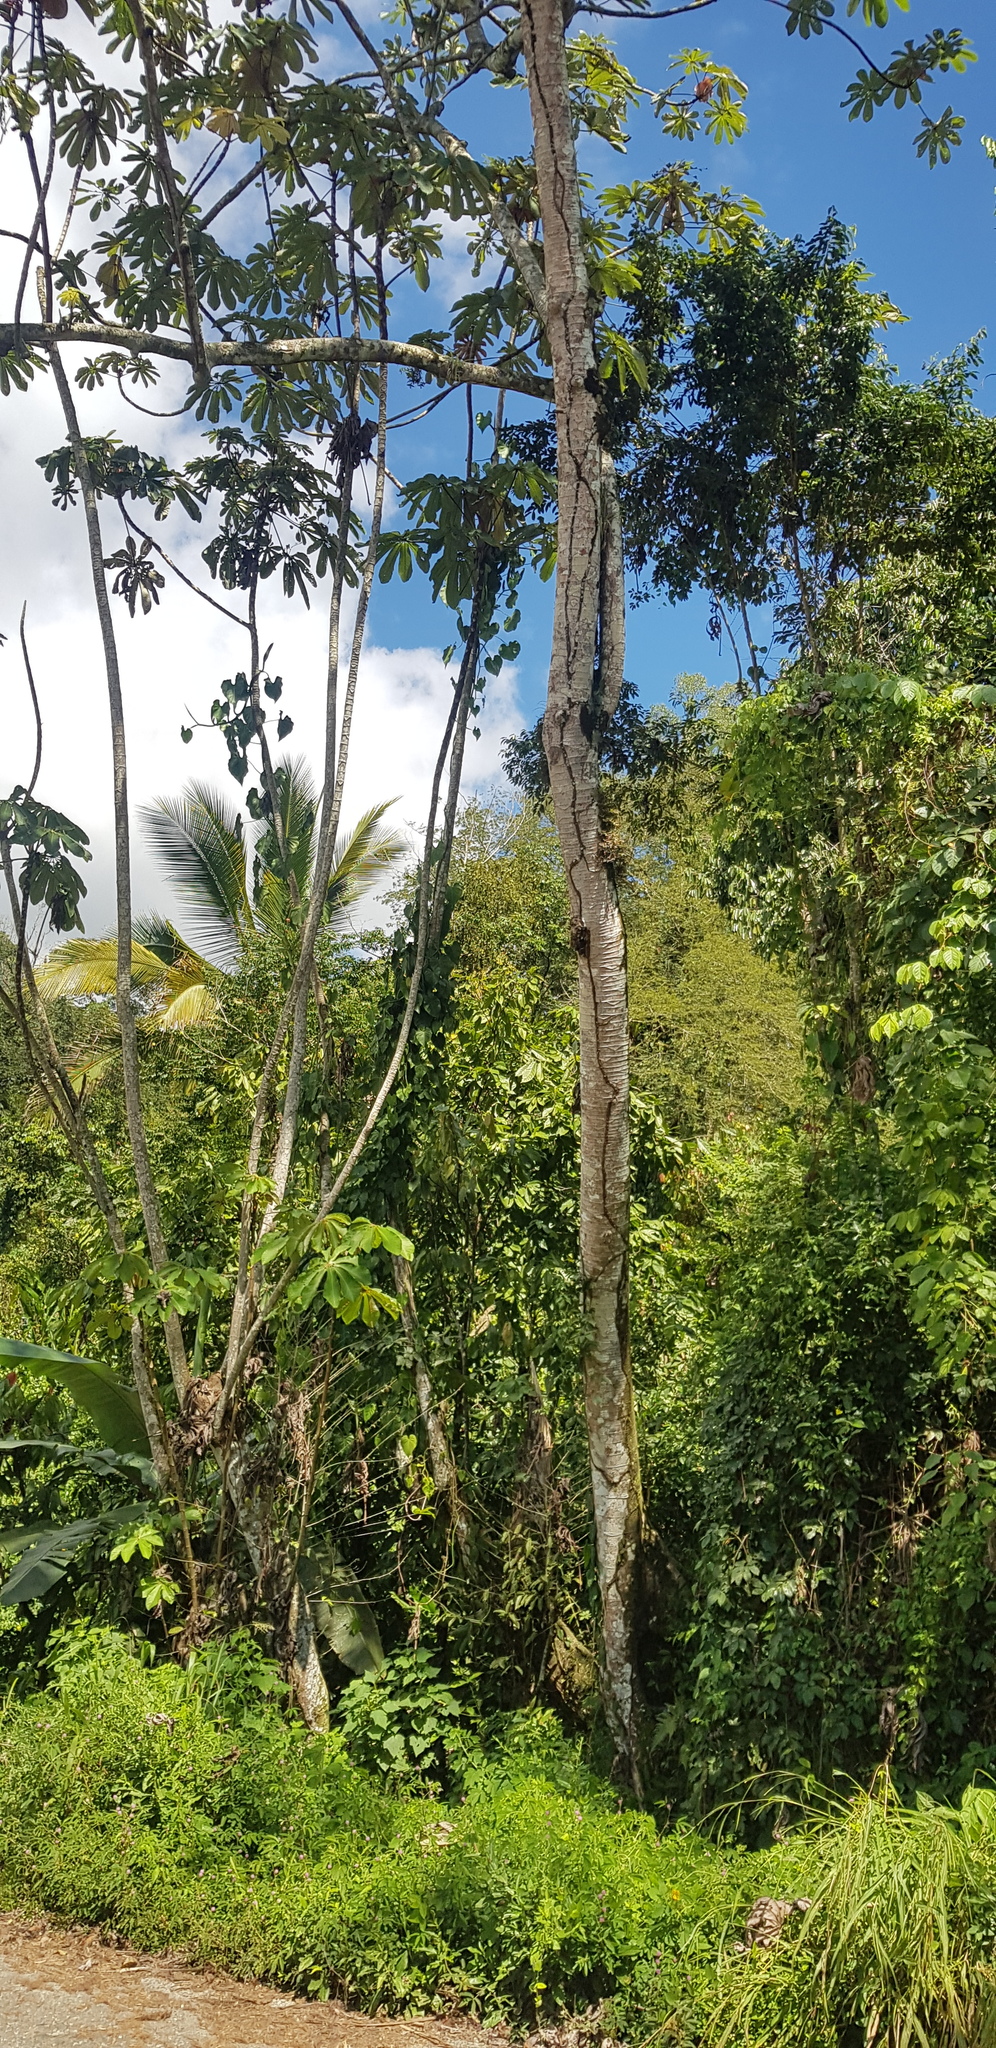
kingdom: Plantae
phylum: Tracheophyta
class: Magnoliopsida
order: Rosales
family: Urticaceae
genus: Cecropia
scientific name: Cecropia obtusifolia
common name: Trumpet tree
